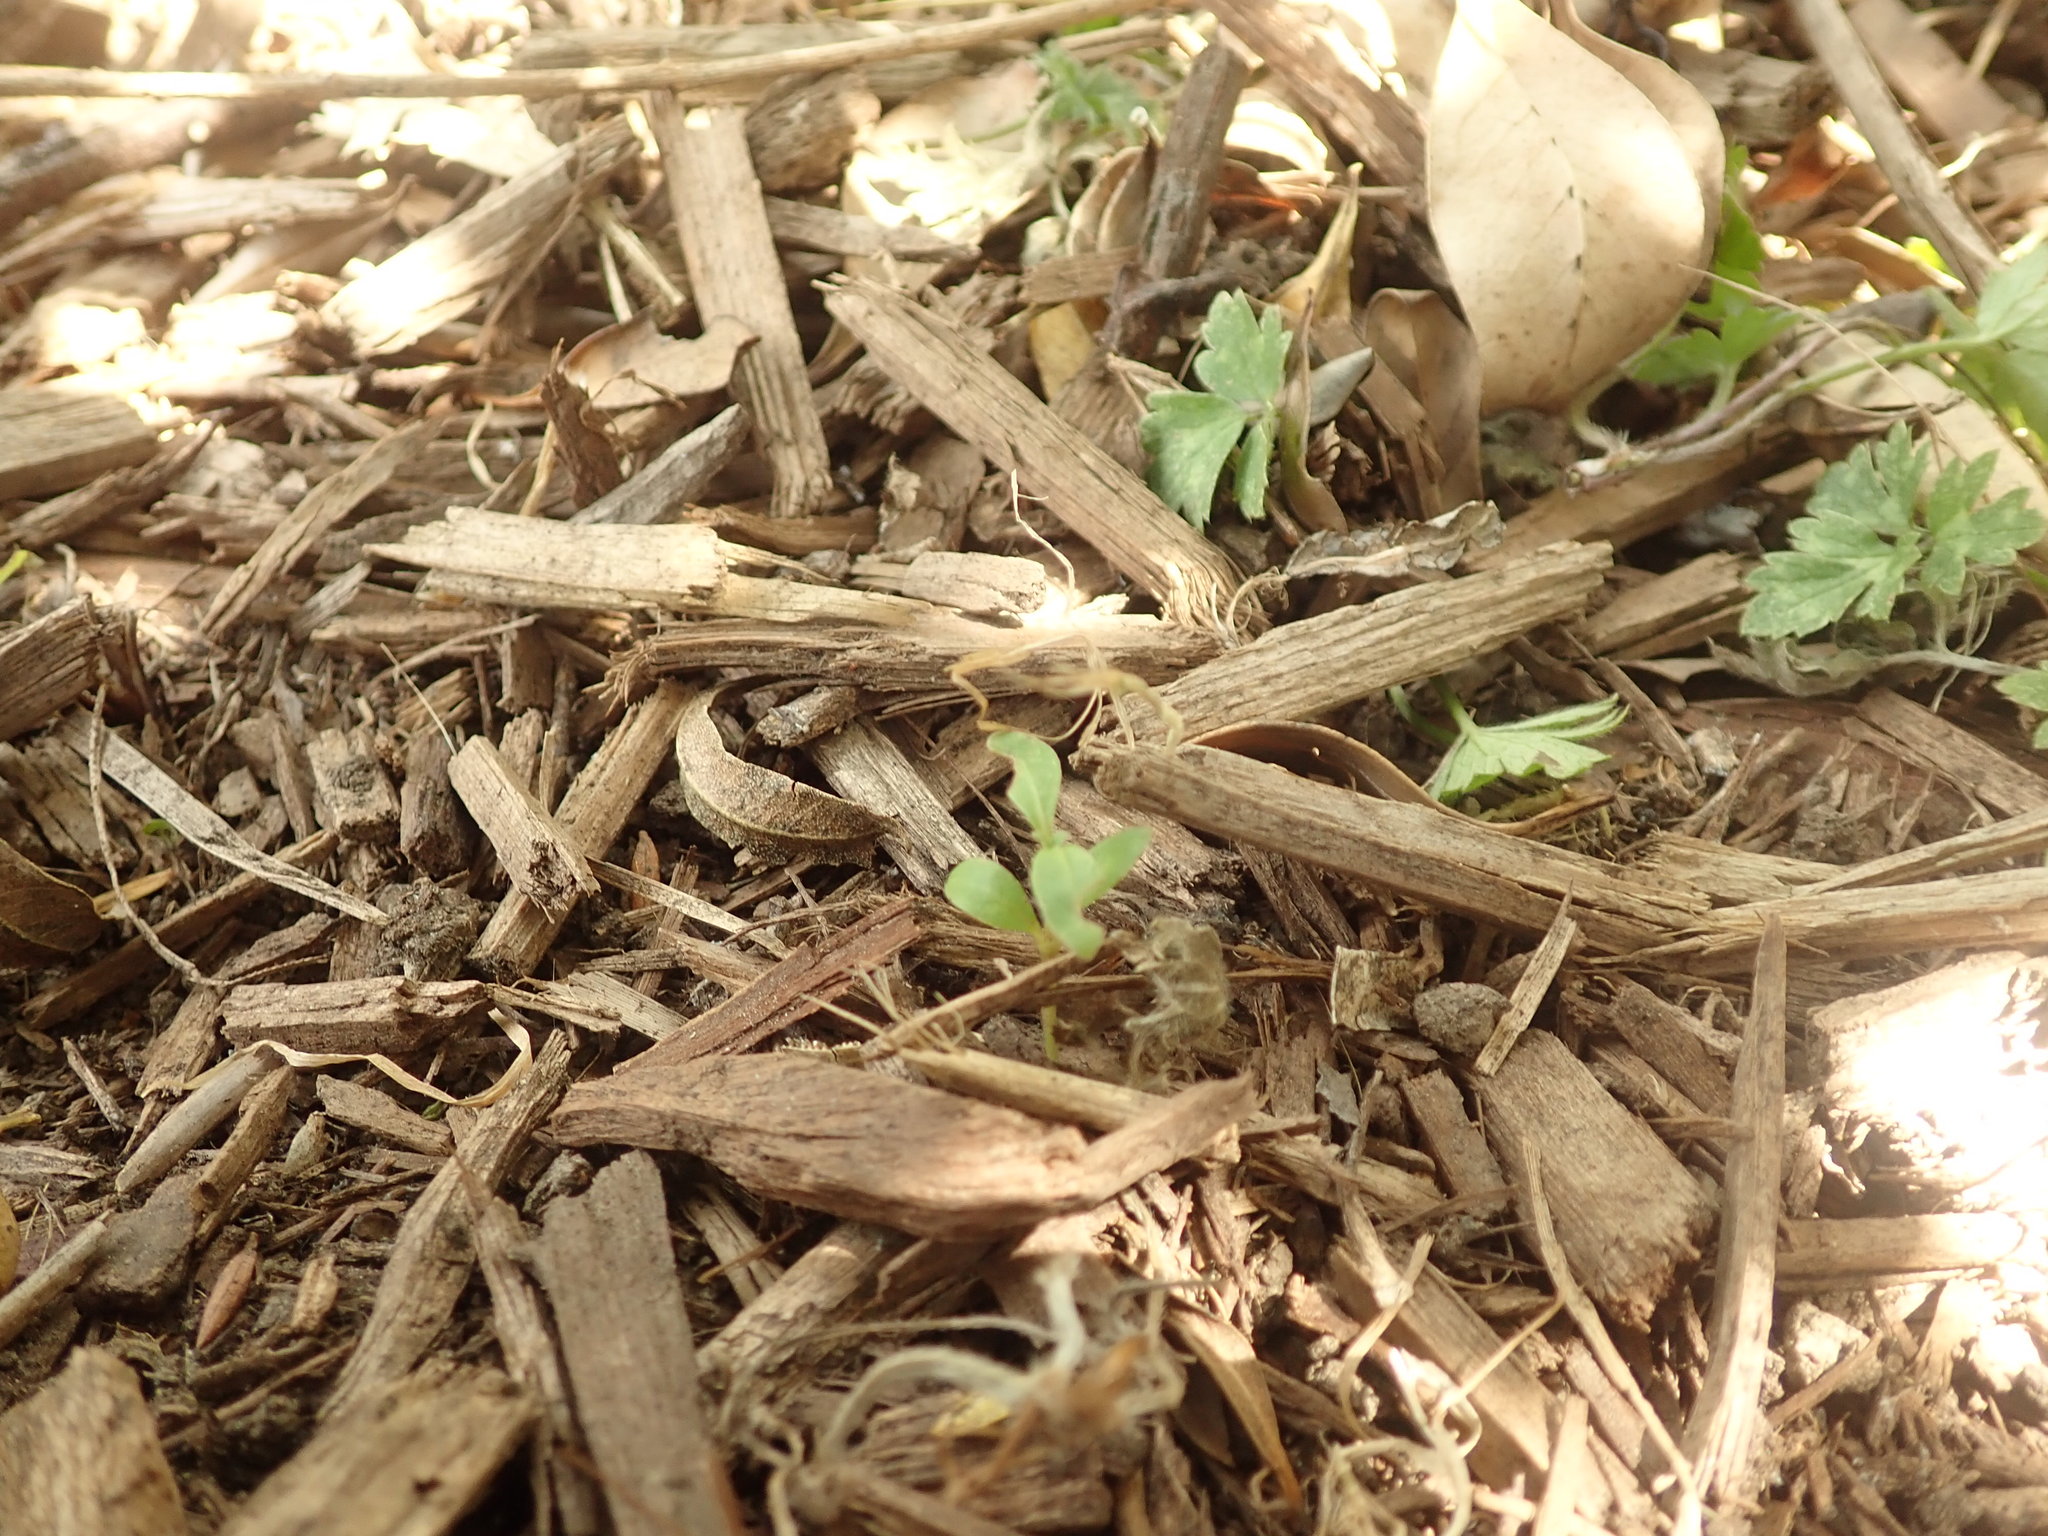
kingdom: Plantae
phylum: Tracheophyta
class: Magnoliopsida
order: Gentianales
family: Rubiaceae
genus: Coprosma
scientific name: Coprosma robusta
